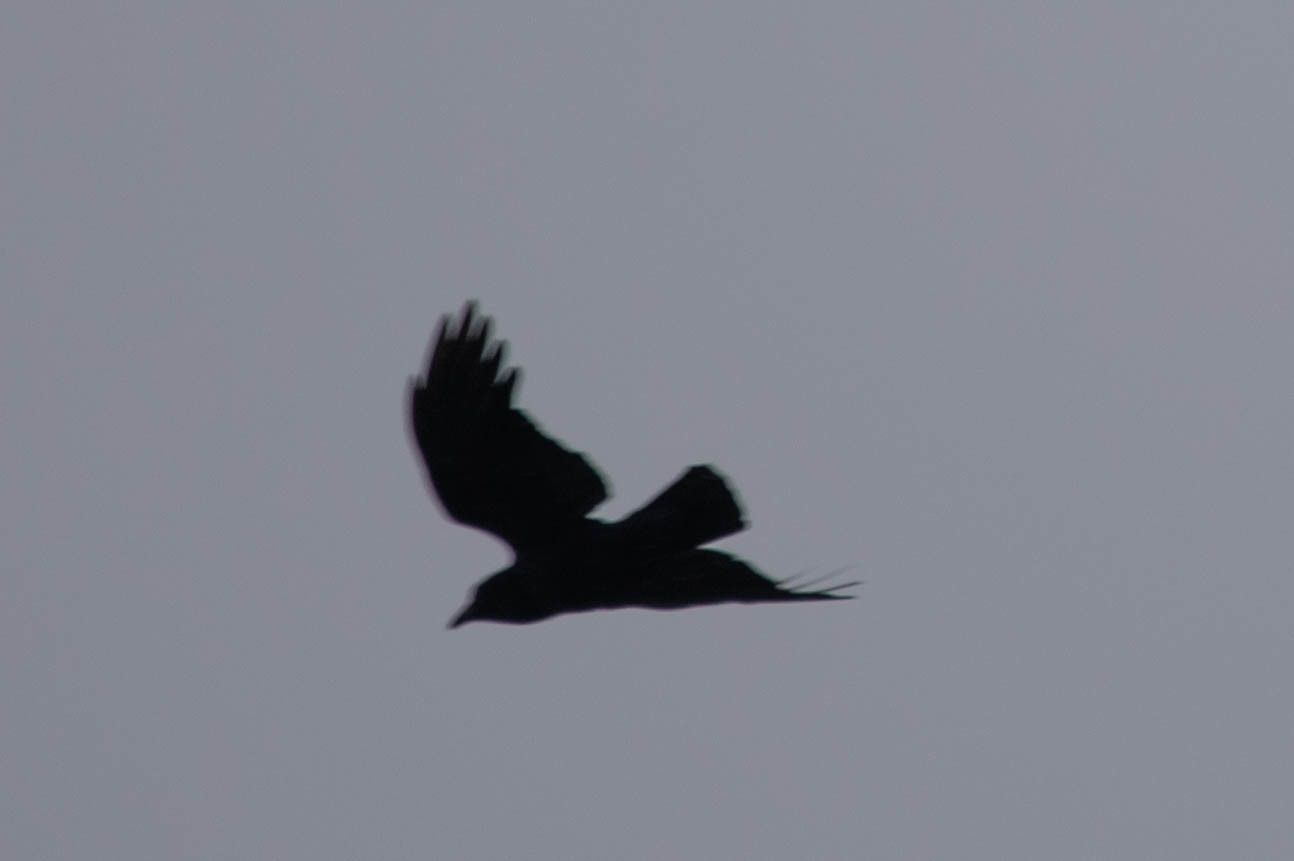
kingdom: Animalia
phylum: Chordata
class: Aves
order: Passeriformes
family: Corvidae
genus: Corvus
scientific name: Corvus brachyrhynchos
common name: American crow
